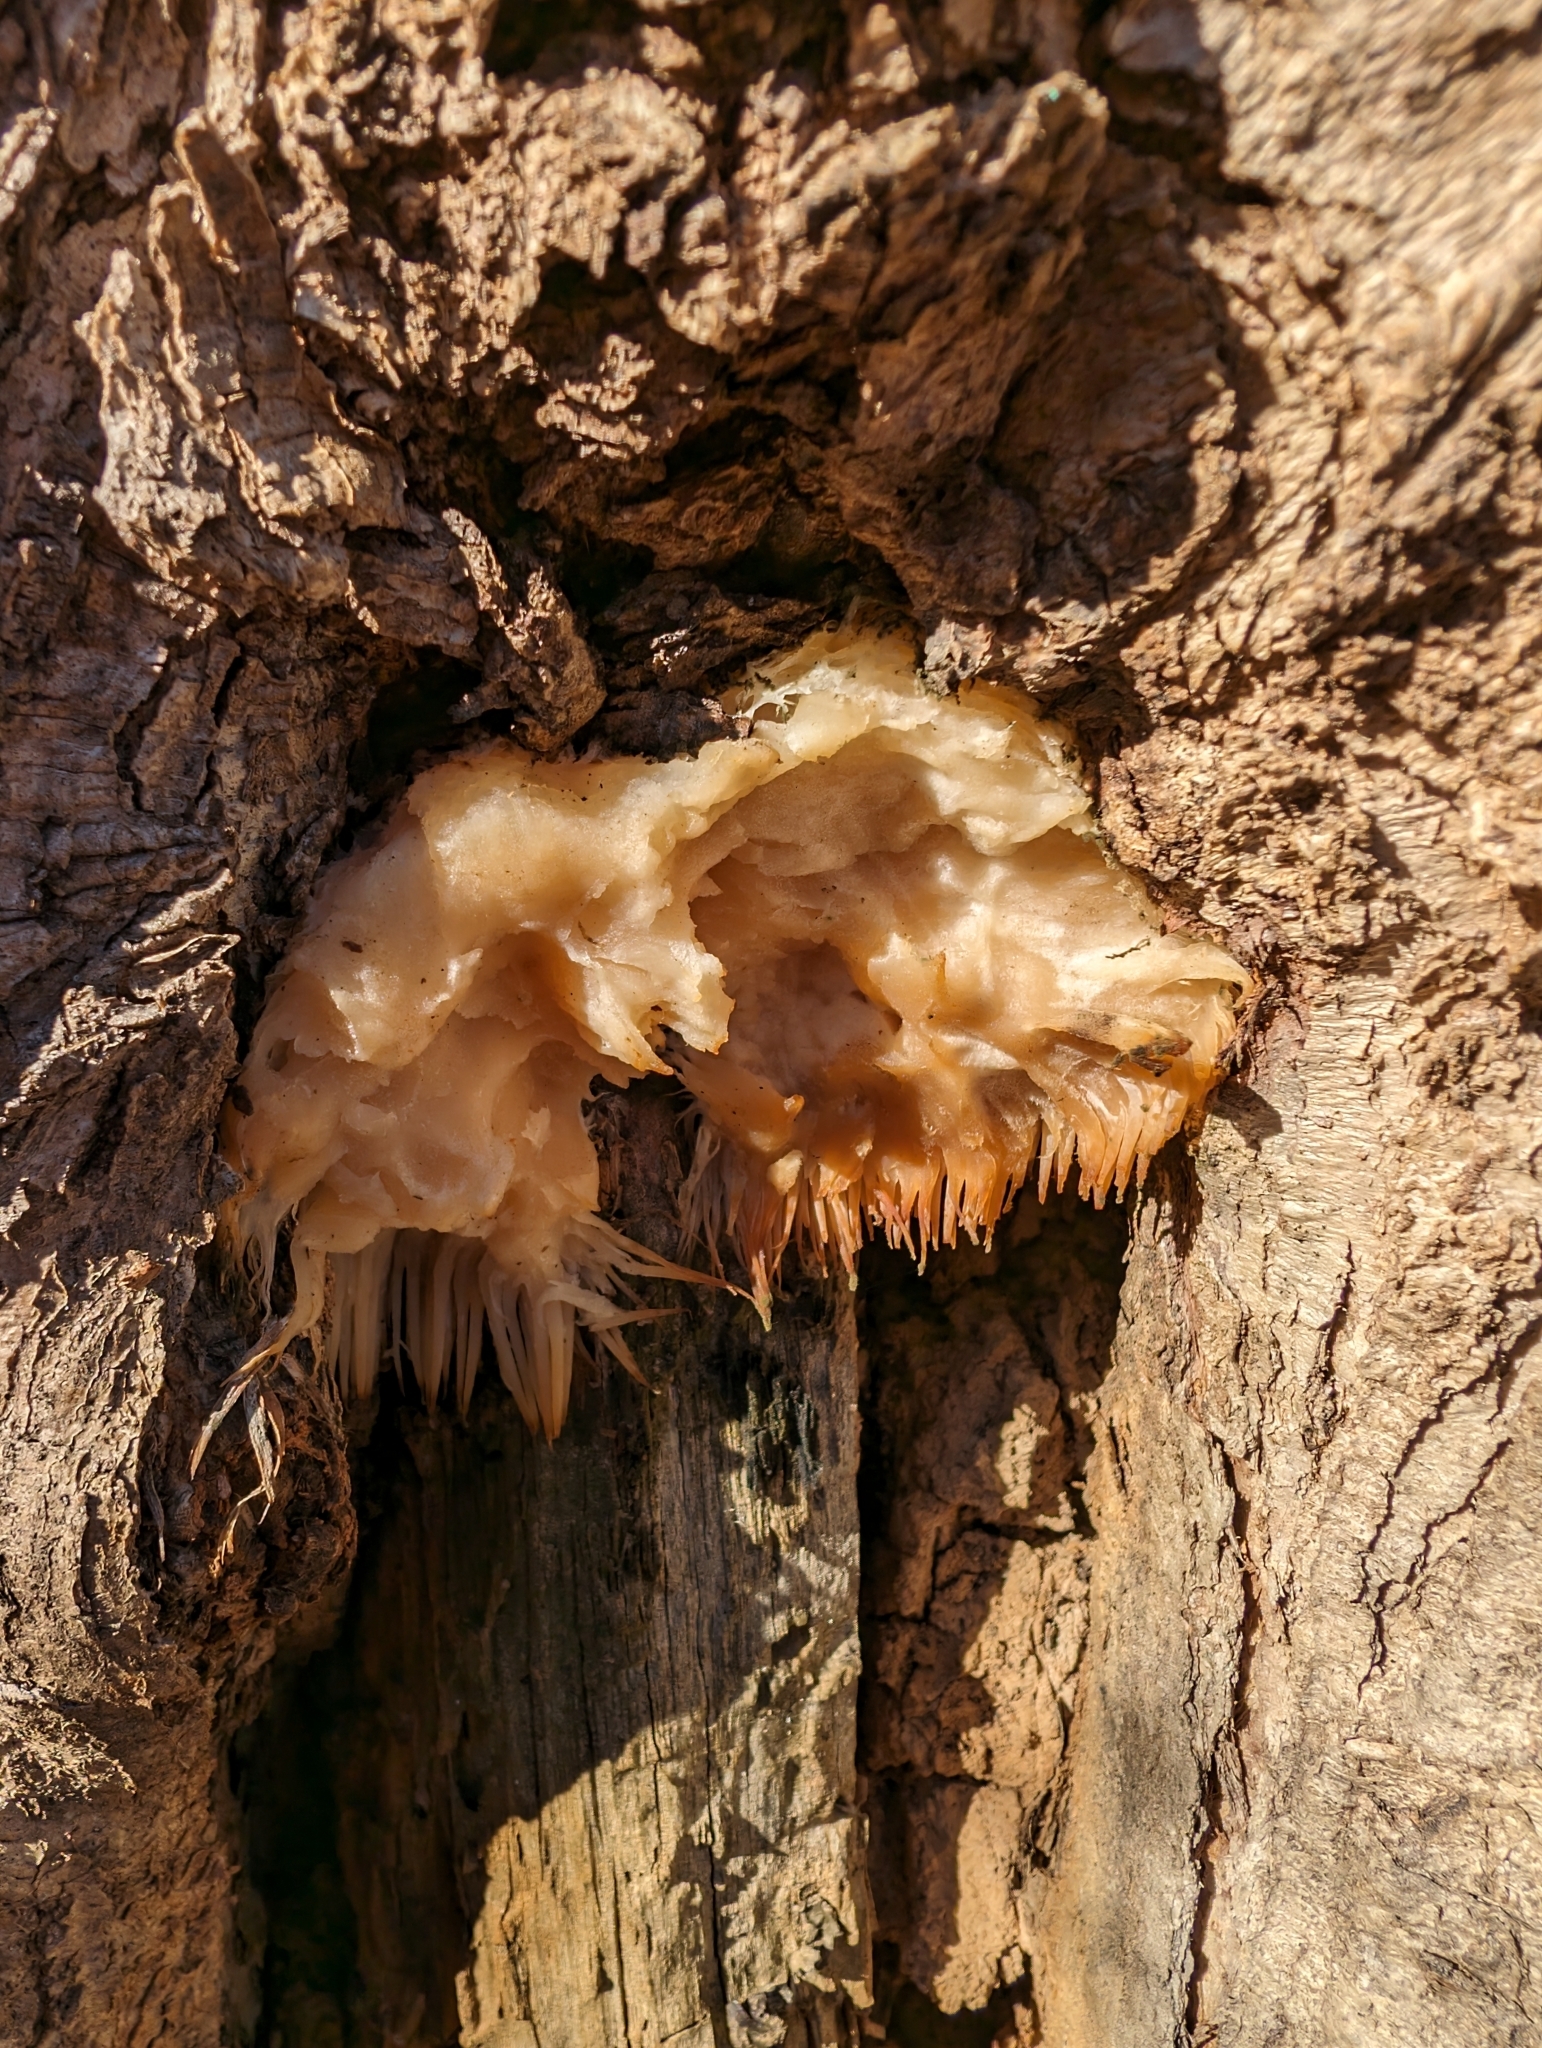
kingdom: Fungi
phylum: Basidiomycota
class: Agaricomycetes
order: Russulales
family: Hericiaceae
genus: Hericium
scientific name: Hericium erinaceus
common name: Bearded tooth
